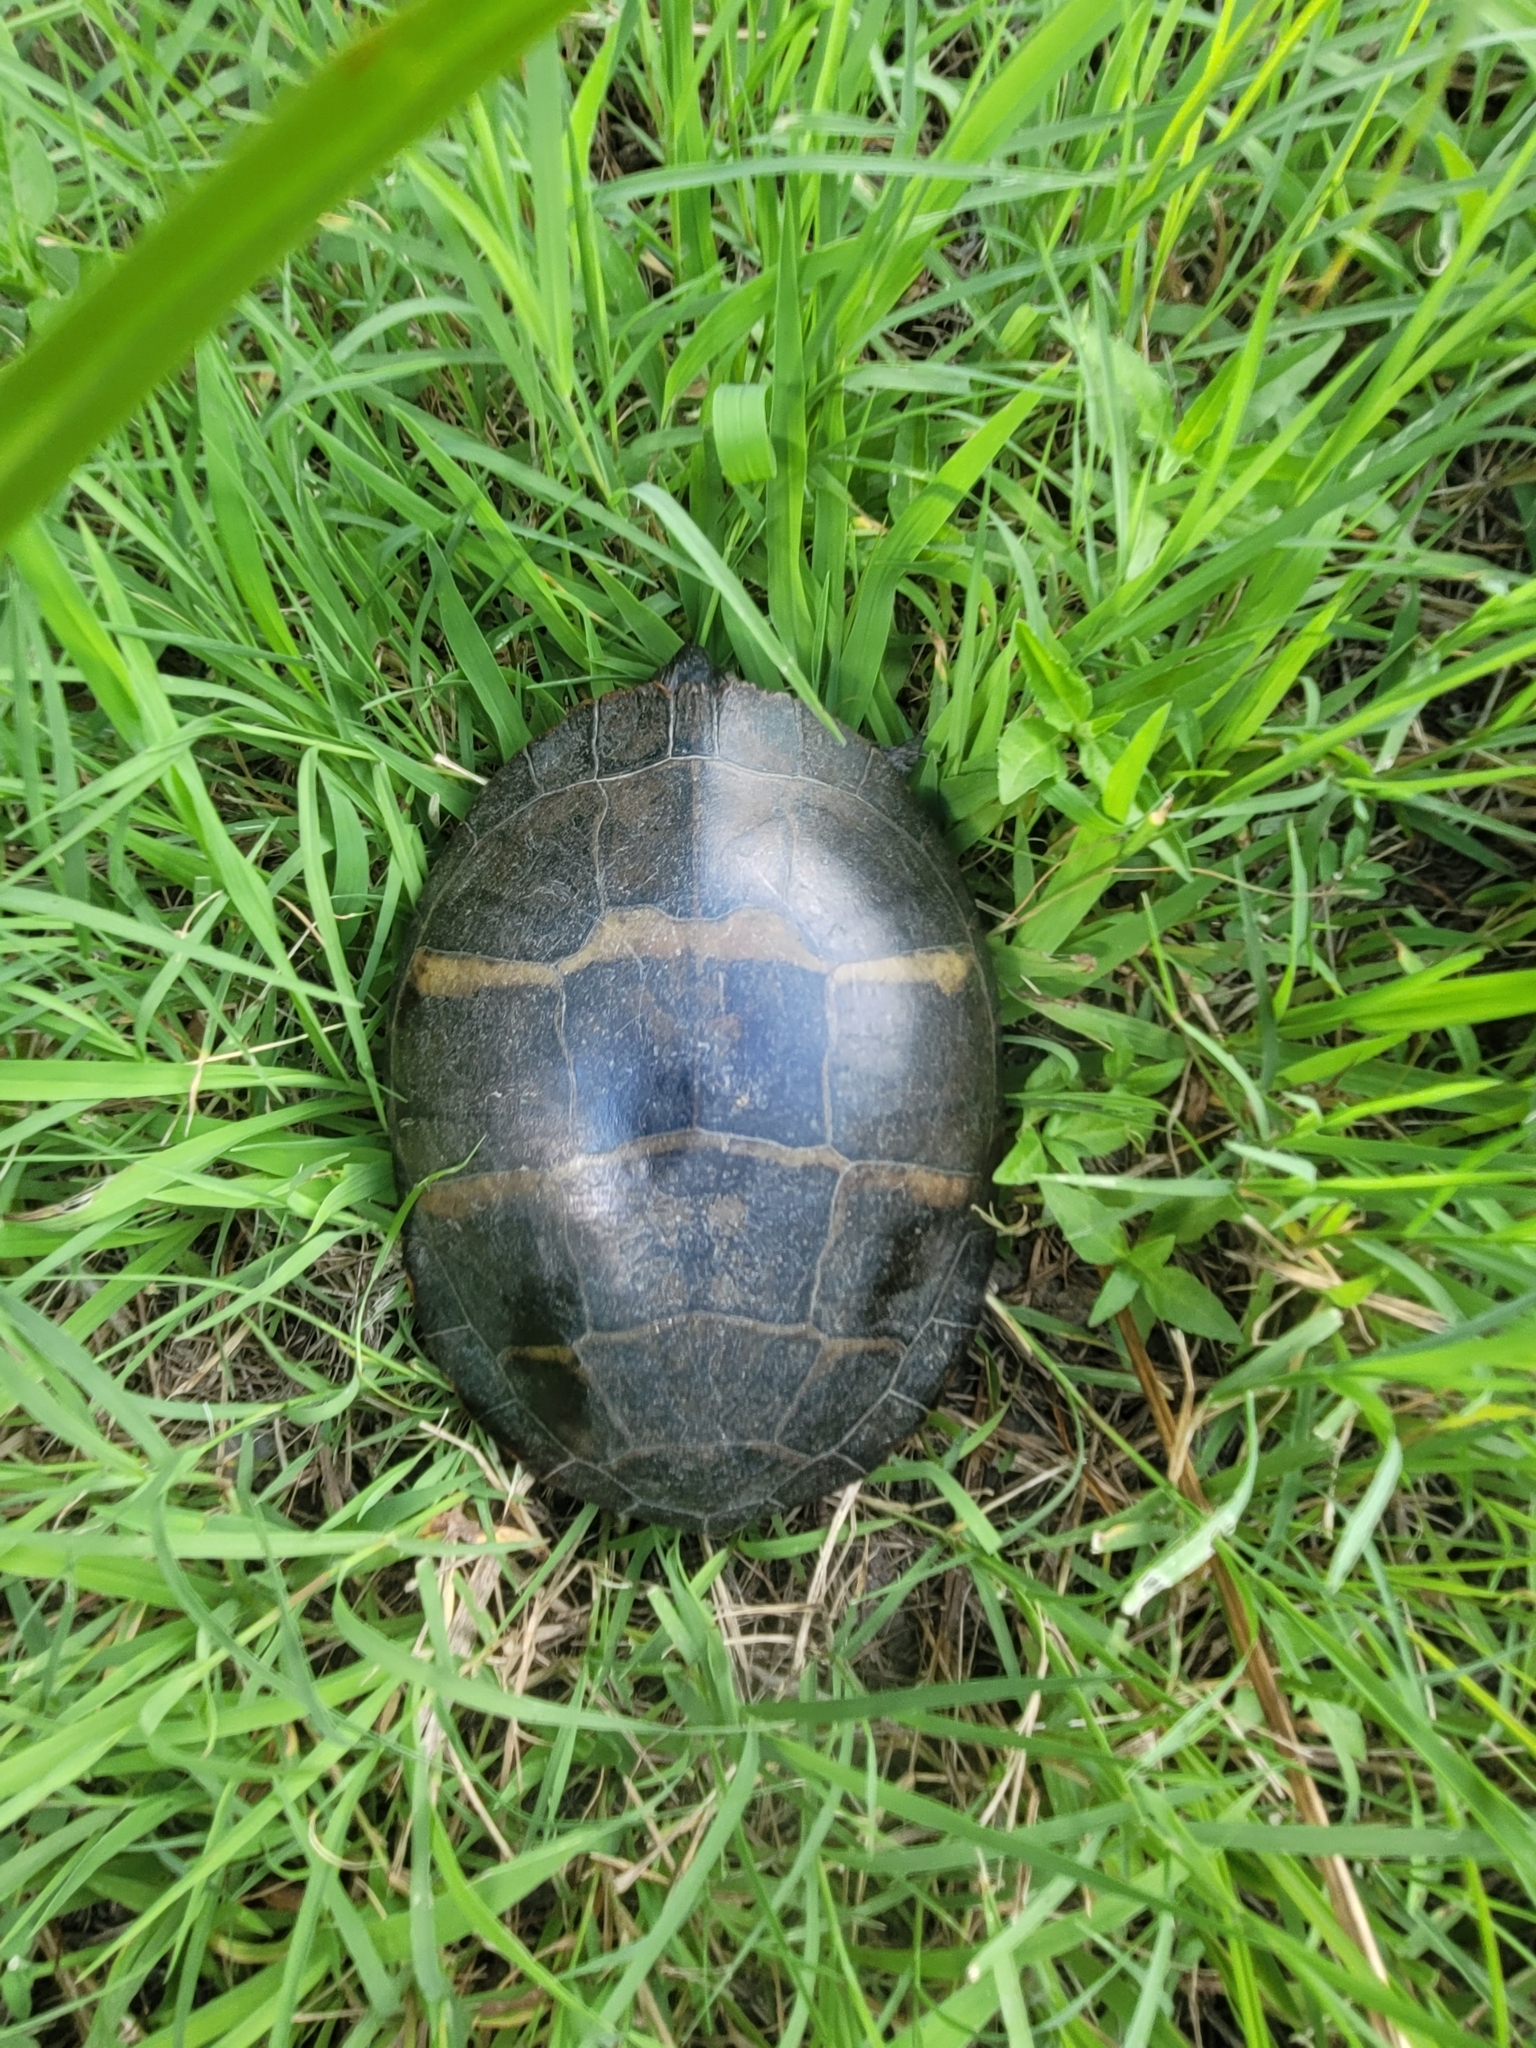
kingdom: Animalia
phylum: Chordata
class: Testudines
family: Emydidae
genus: Chrysemys
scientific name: Chrysemys picta
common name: Painted turtle
